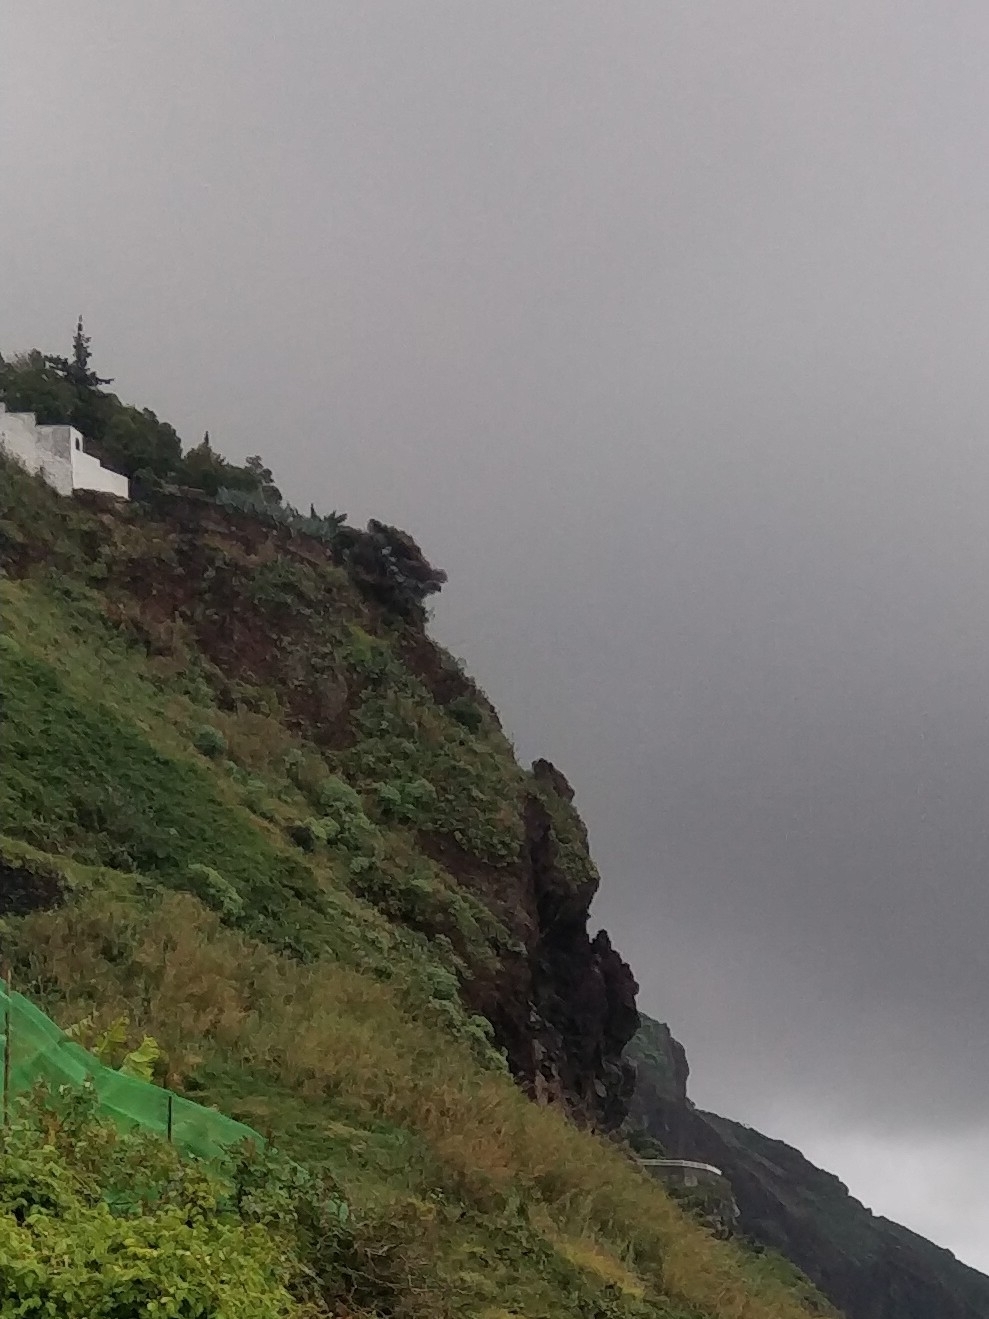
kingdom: Plantae
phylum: Tracheophyta
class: Magnoliopsida
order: Malpighiales
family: Euphorbiaceae
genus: Euphorbia
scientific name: Euphorbia piscatoria
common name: Fish-stunning spurge
